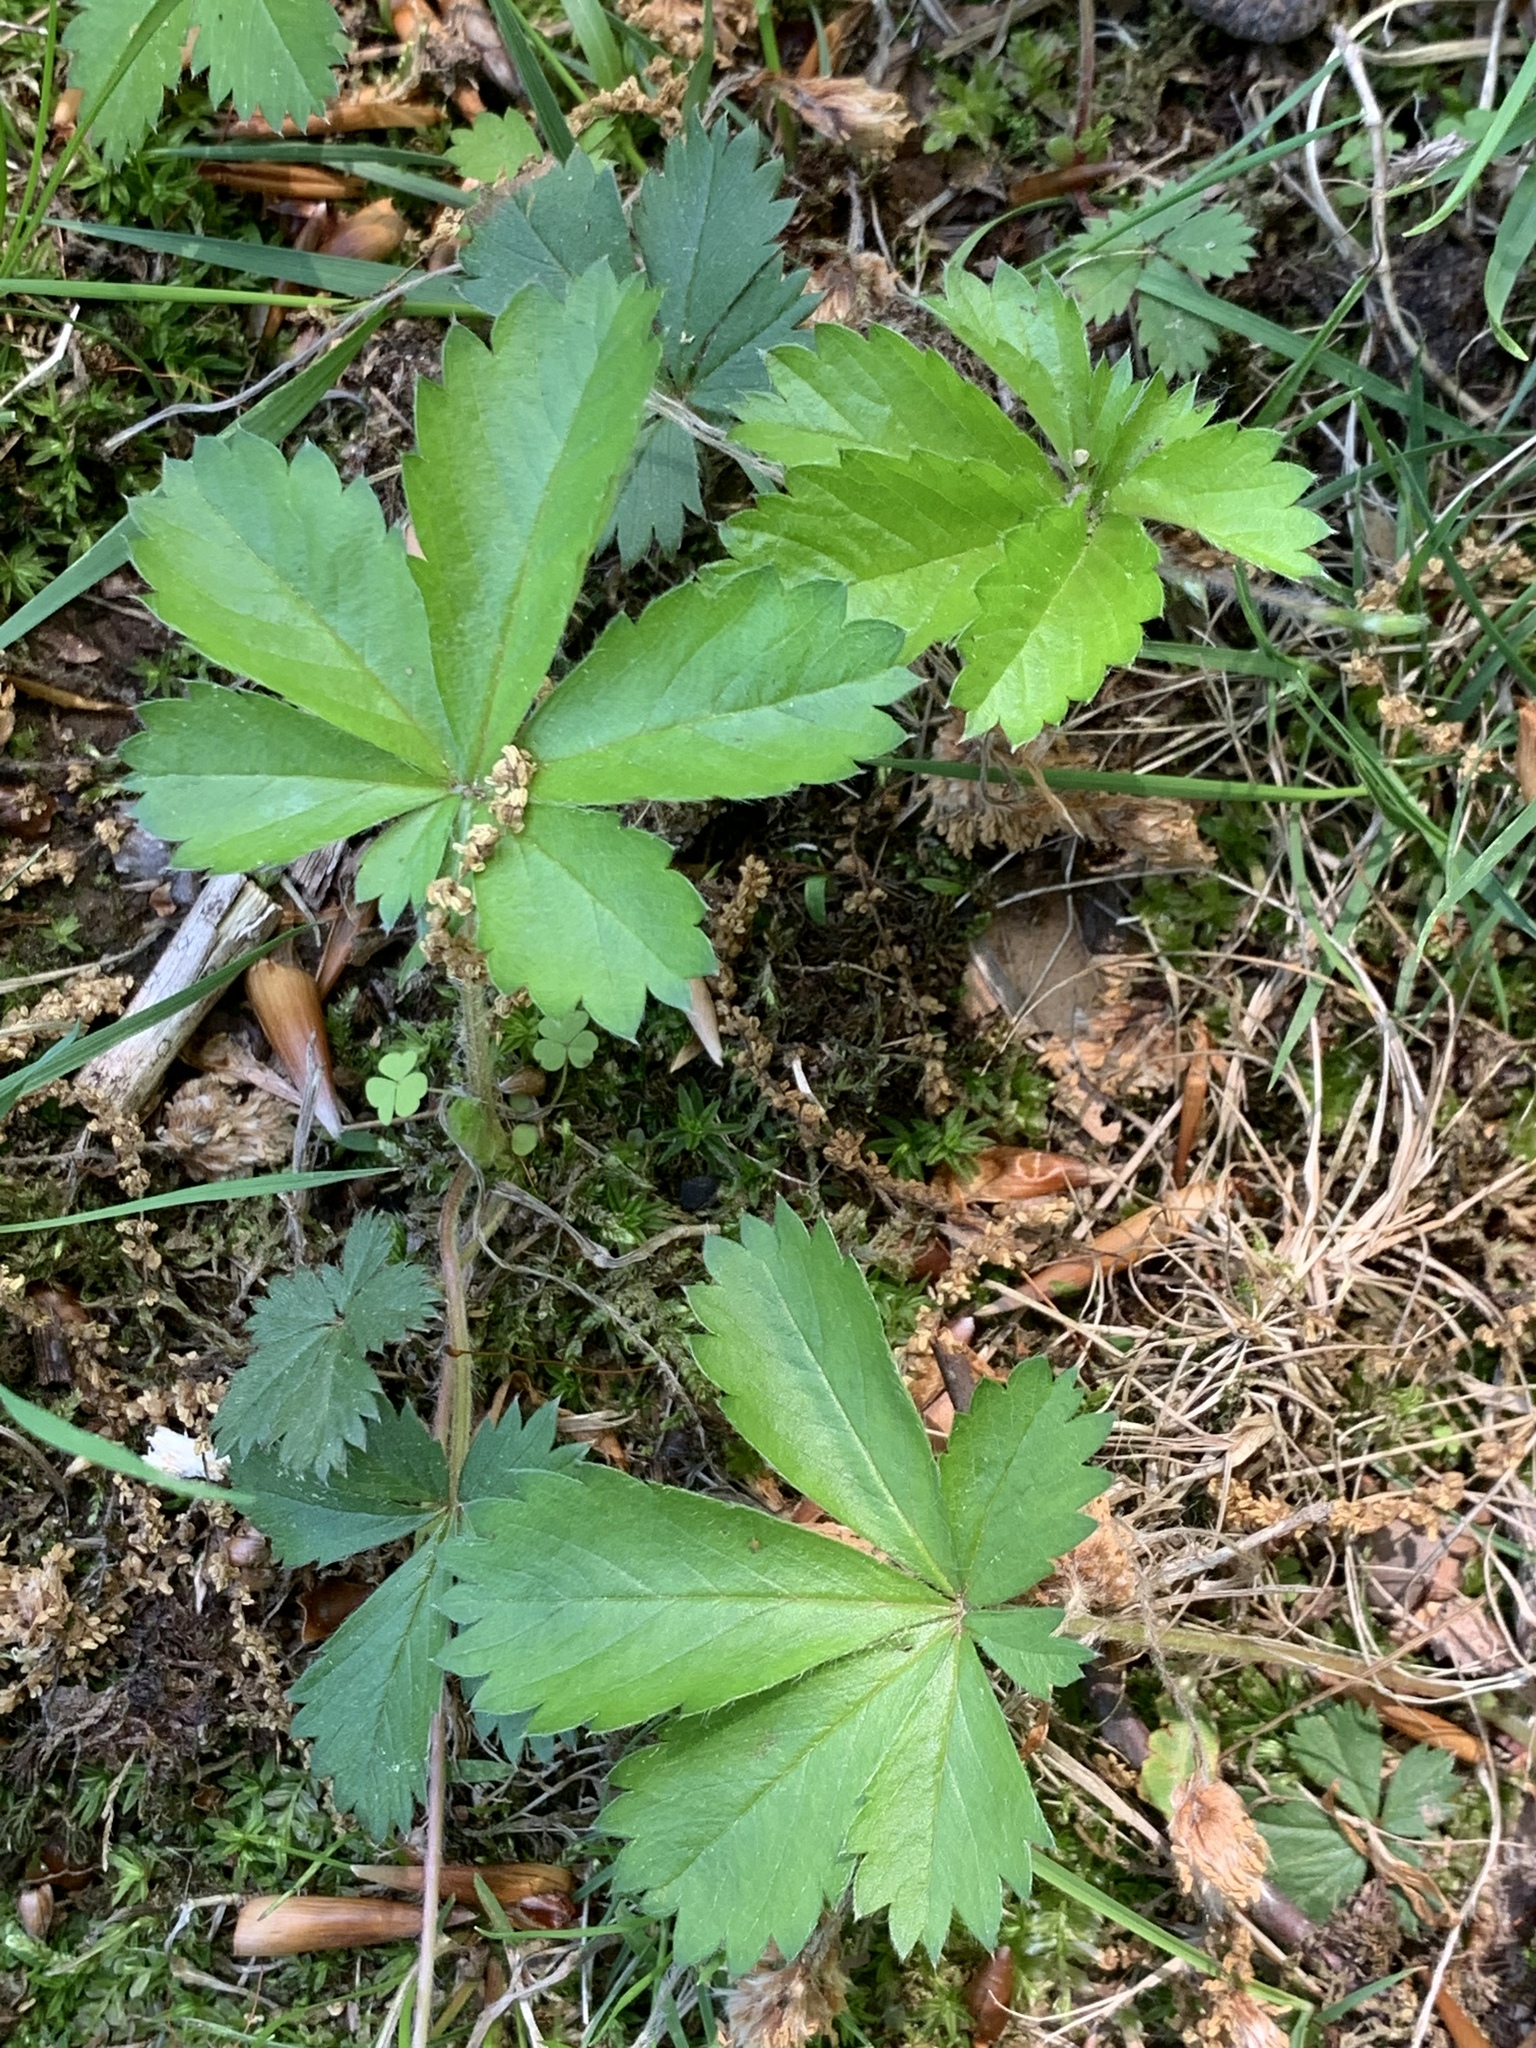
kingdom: Plantae
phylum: Tracheophyta
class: Magnoliopsida
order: Rosales
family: Rosaceae
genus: Potentilla
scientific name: Potentilla canadensis
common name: Canada cinquefoil
